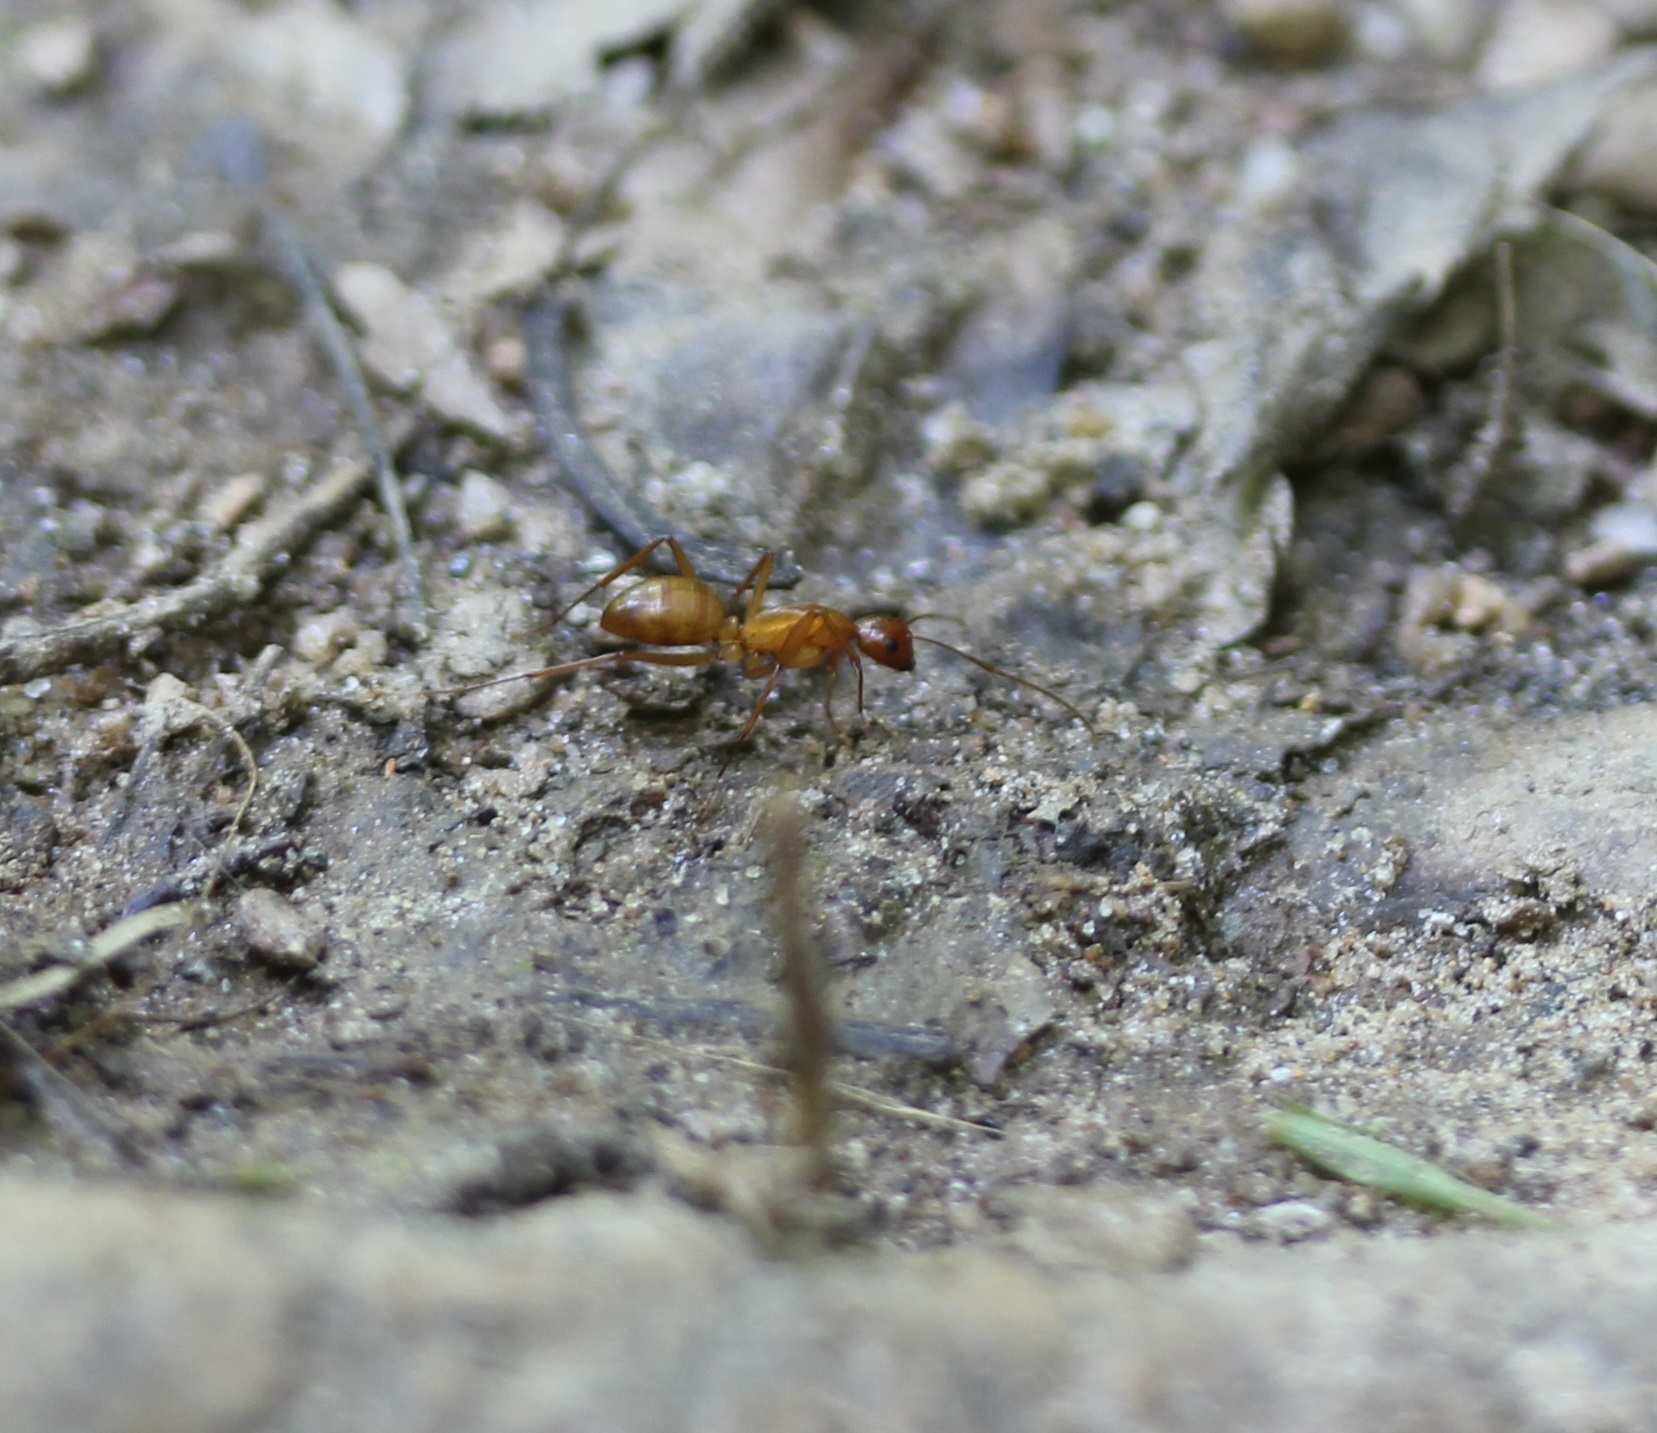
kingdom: Animalia
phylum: Arthropoda
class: Insecta
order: Hymenoptera
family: Formicidae
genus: Camponotus
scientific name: Camponotus castaneus
